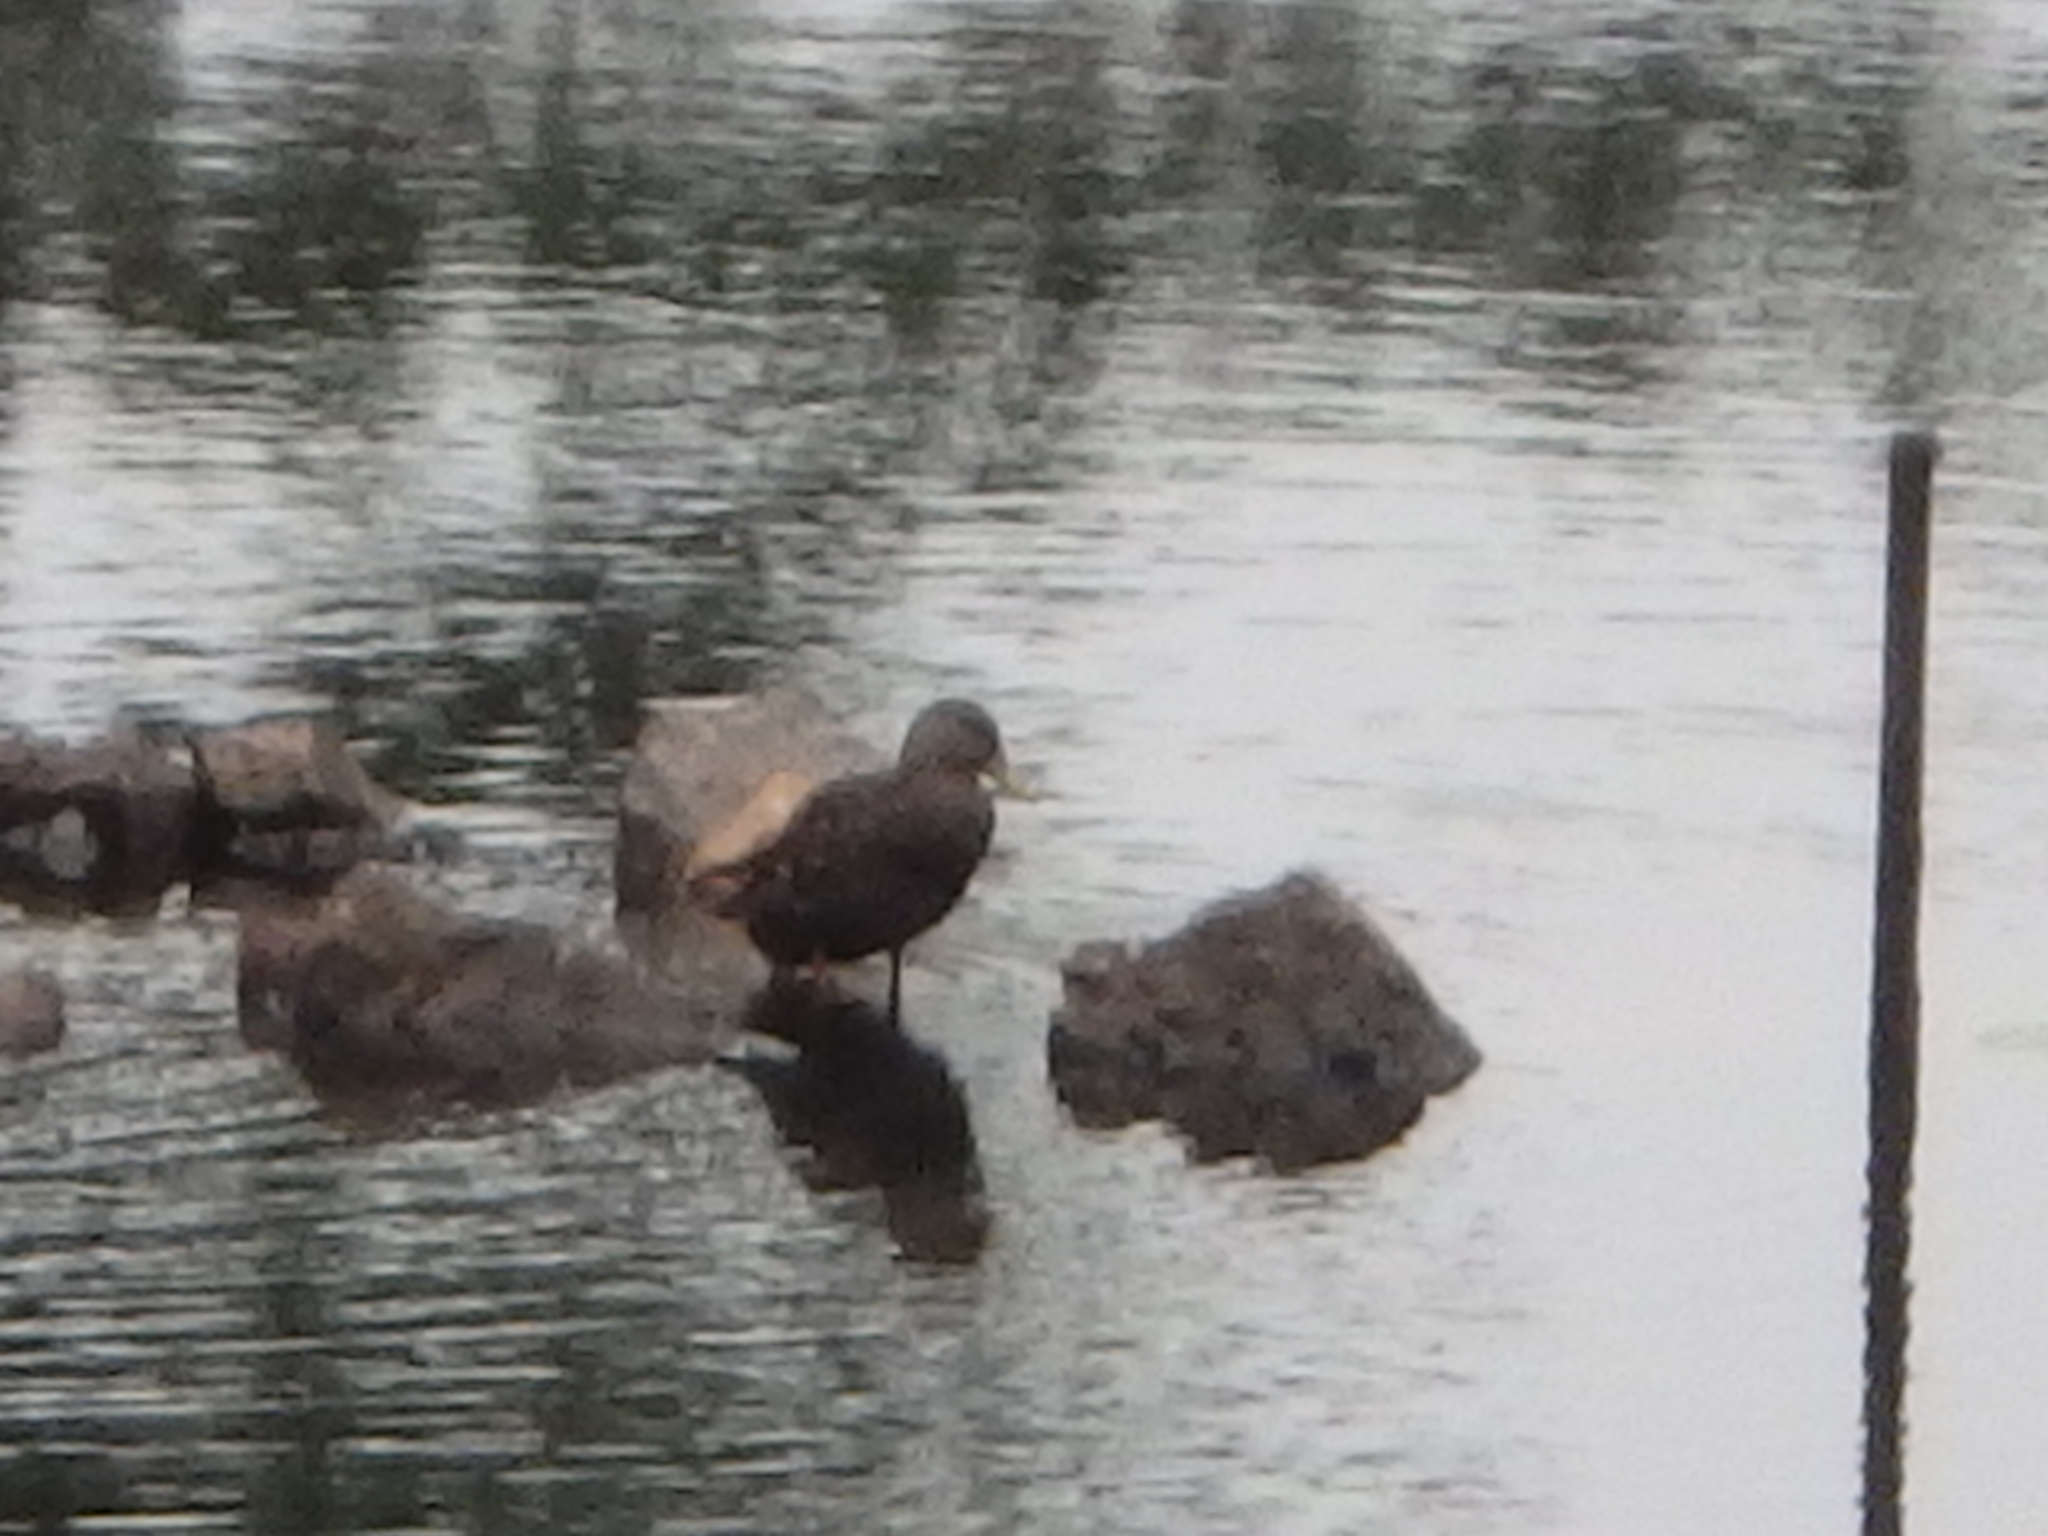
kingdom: Animalia
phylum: Chordata
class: Aves
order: Anseriformes
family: Anatidae
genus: Anas
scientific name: Anas rubripes
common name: American black duck
